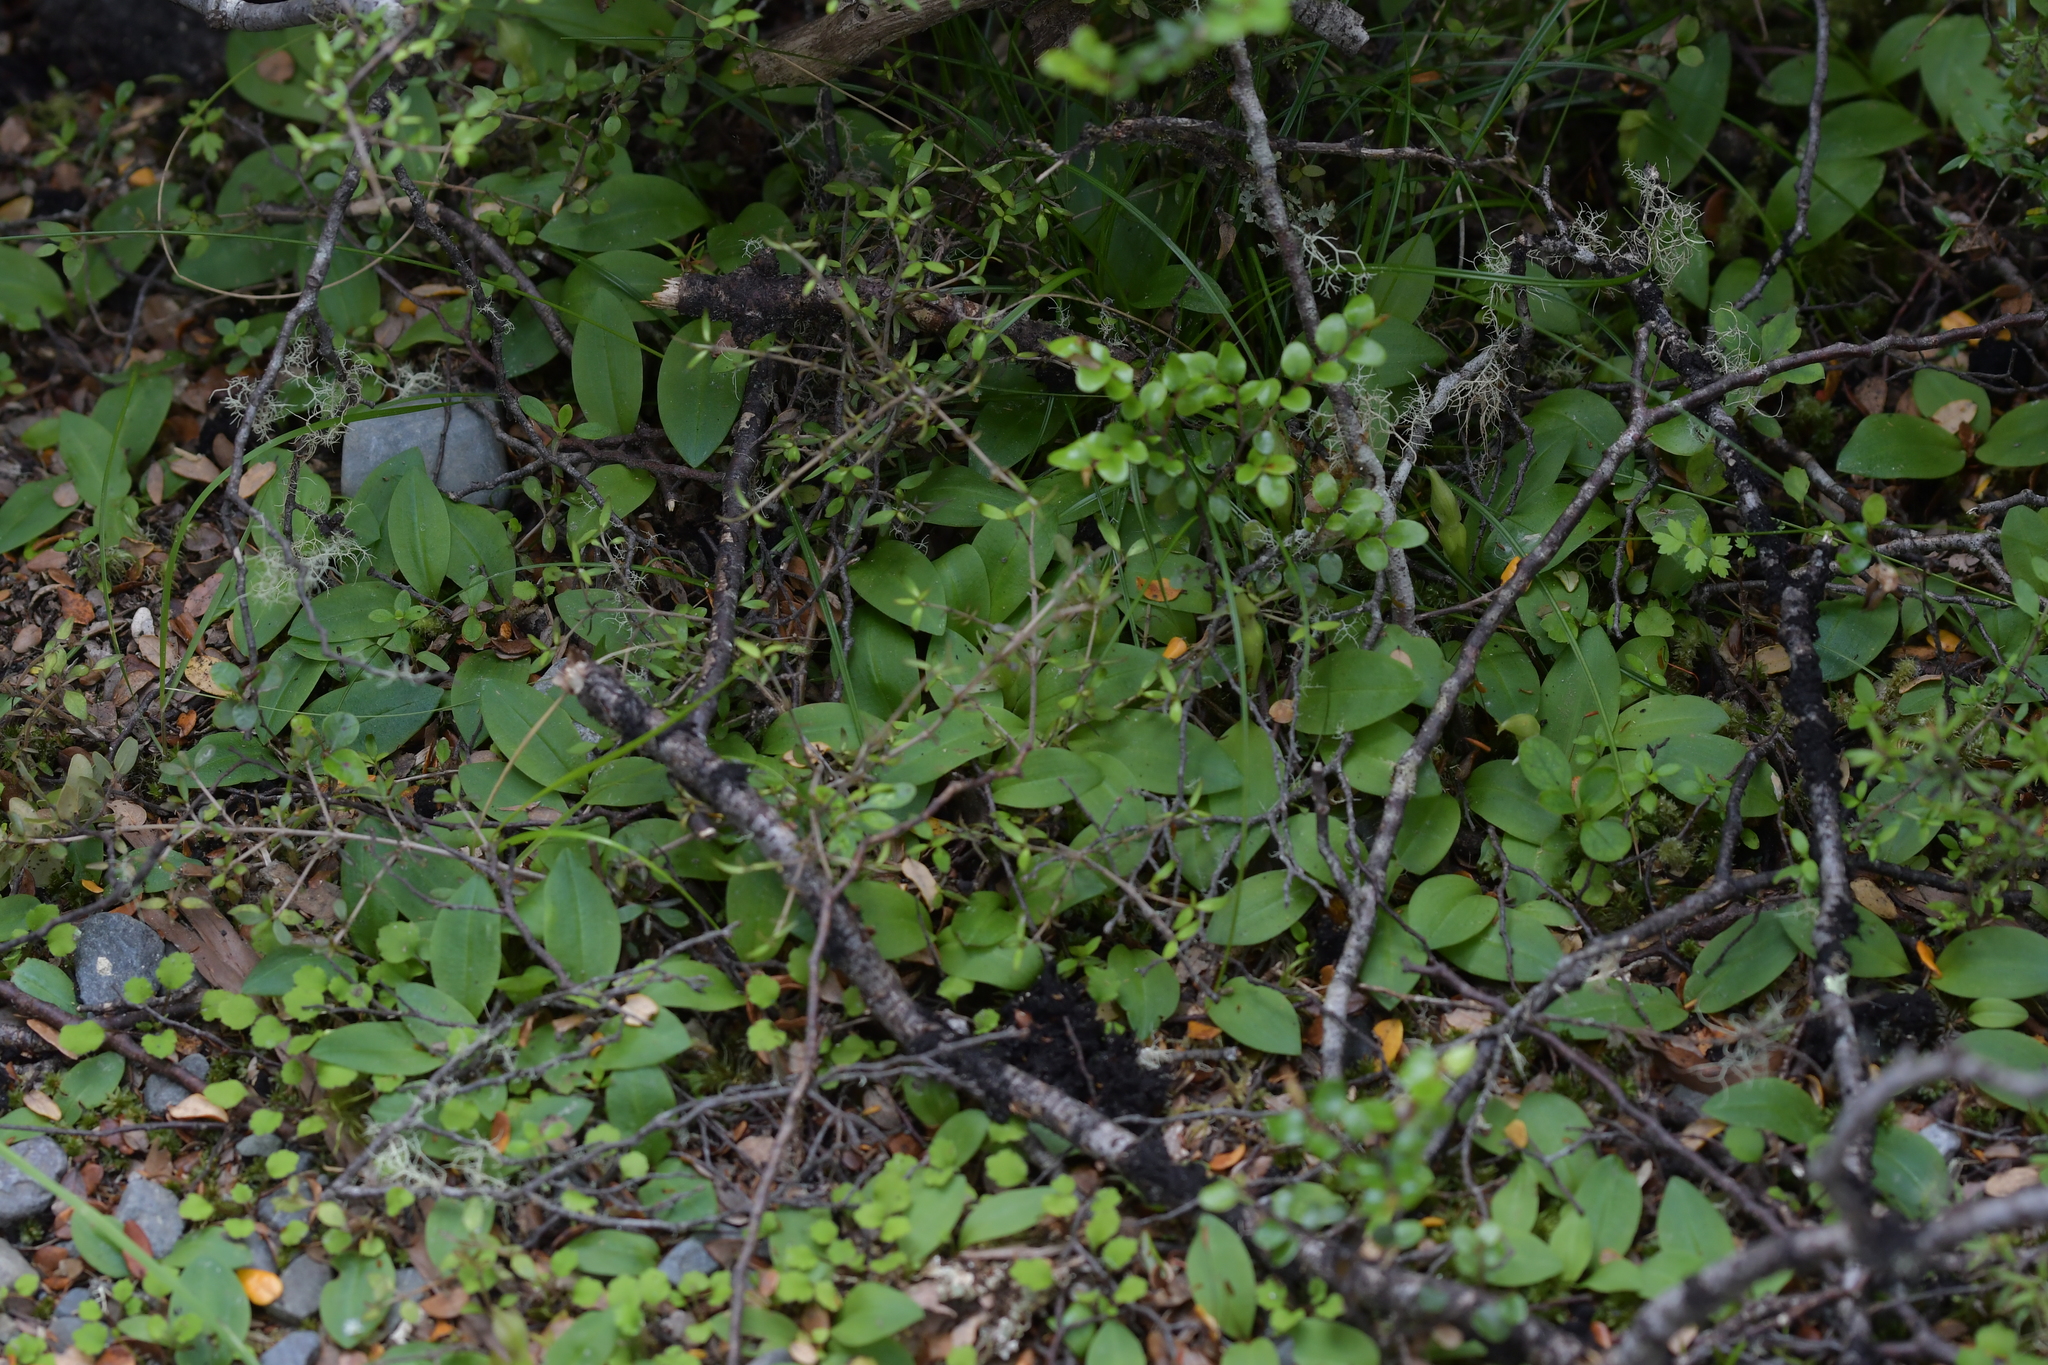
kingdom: Plantae
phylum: Tracheophyta
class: Liliopsida
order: Asparagales
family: Orchidaceae
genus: Chiloglottis
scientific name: Chiloglottis cornuta
